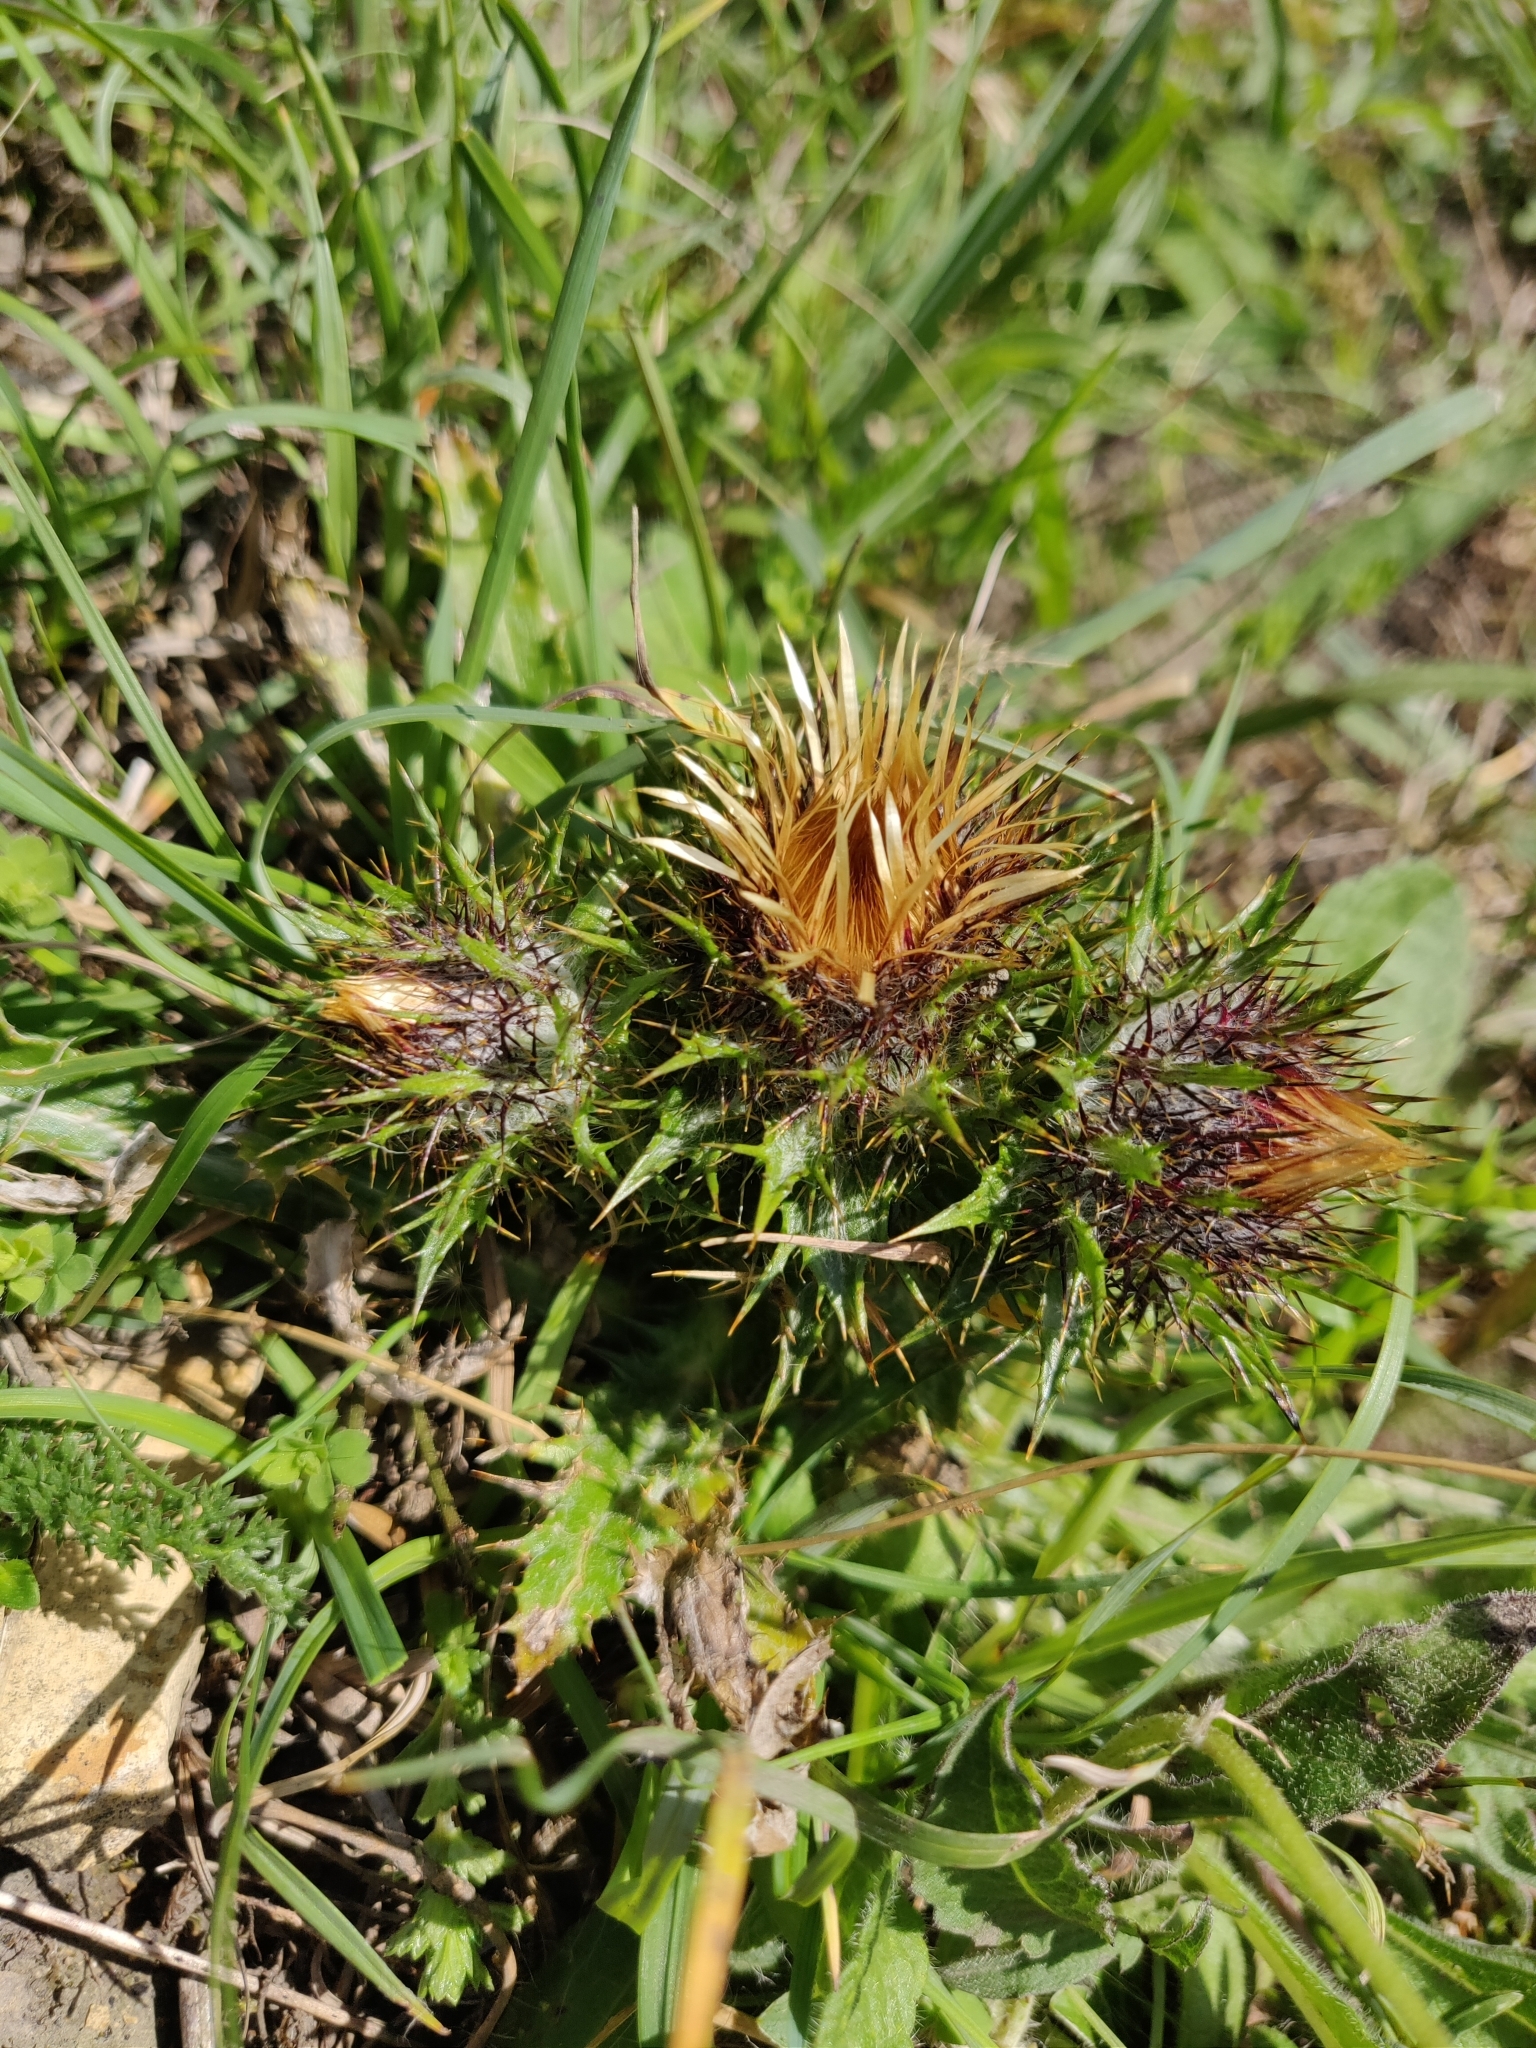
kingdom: Plantae
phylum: Tracheophyta
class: Magnoliopsida
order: Asterales
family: Asteraceae
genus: Carlina
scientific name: Carlina vulgaris
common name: Carline thistle
